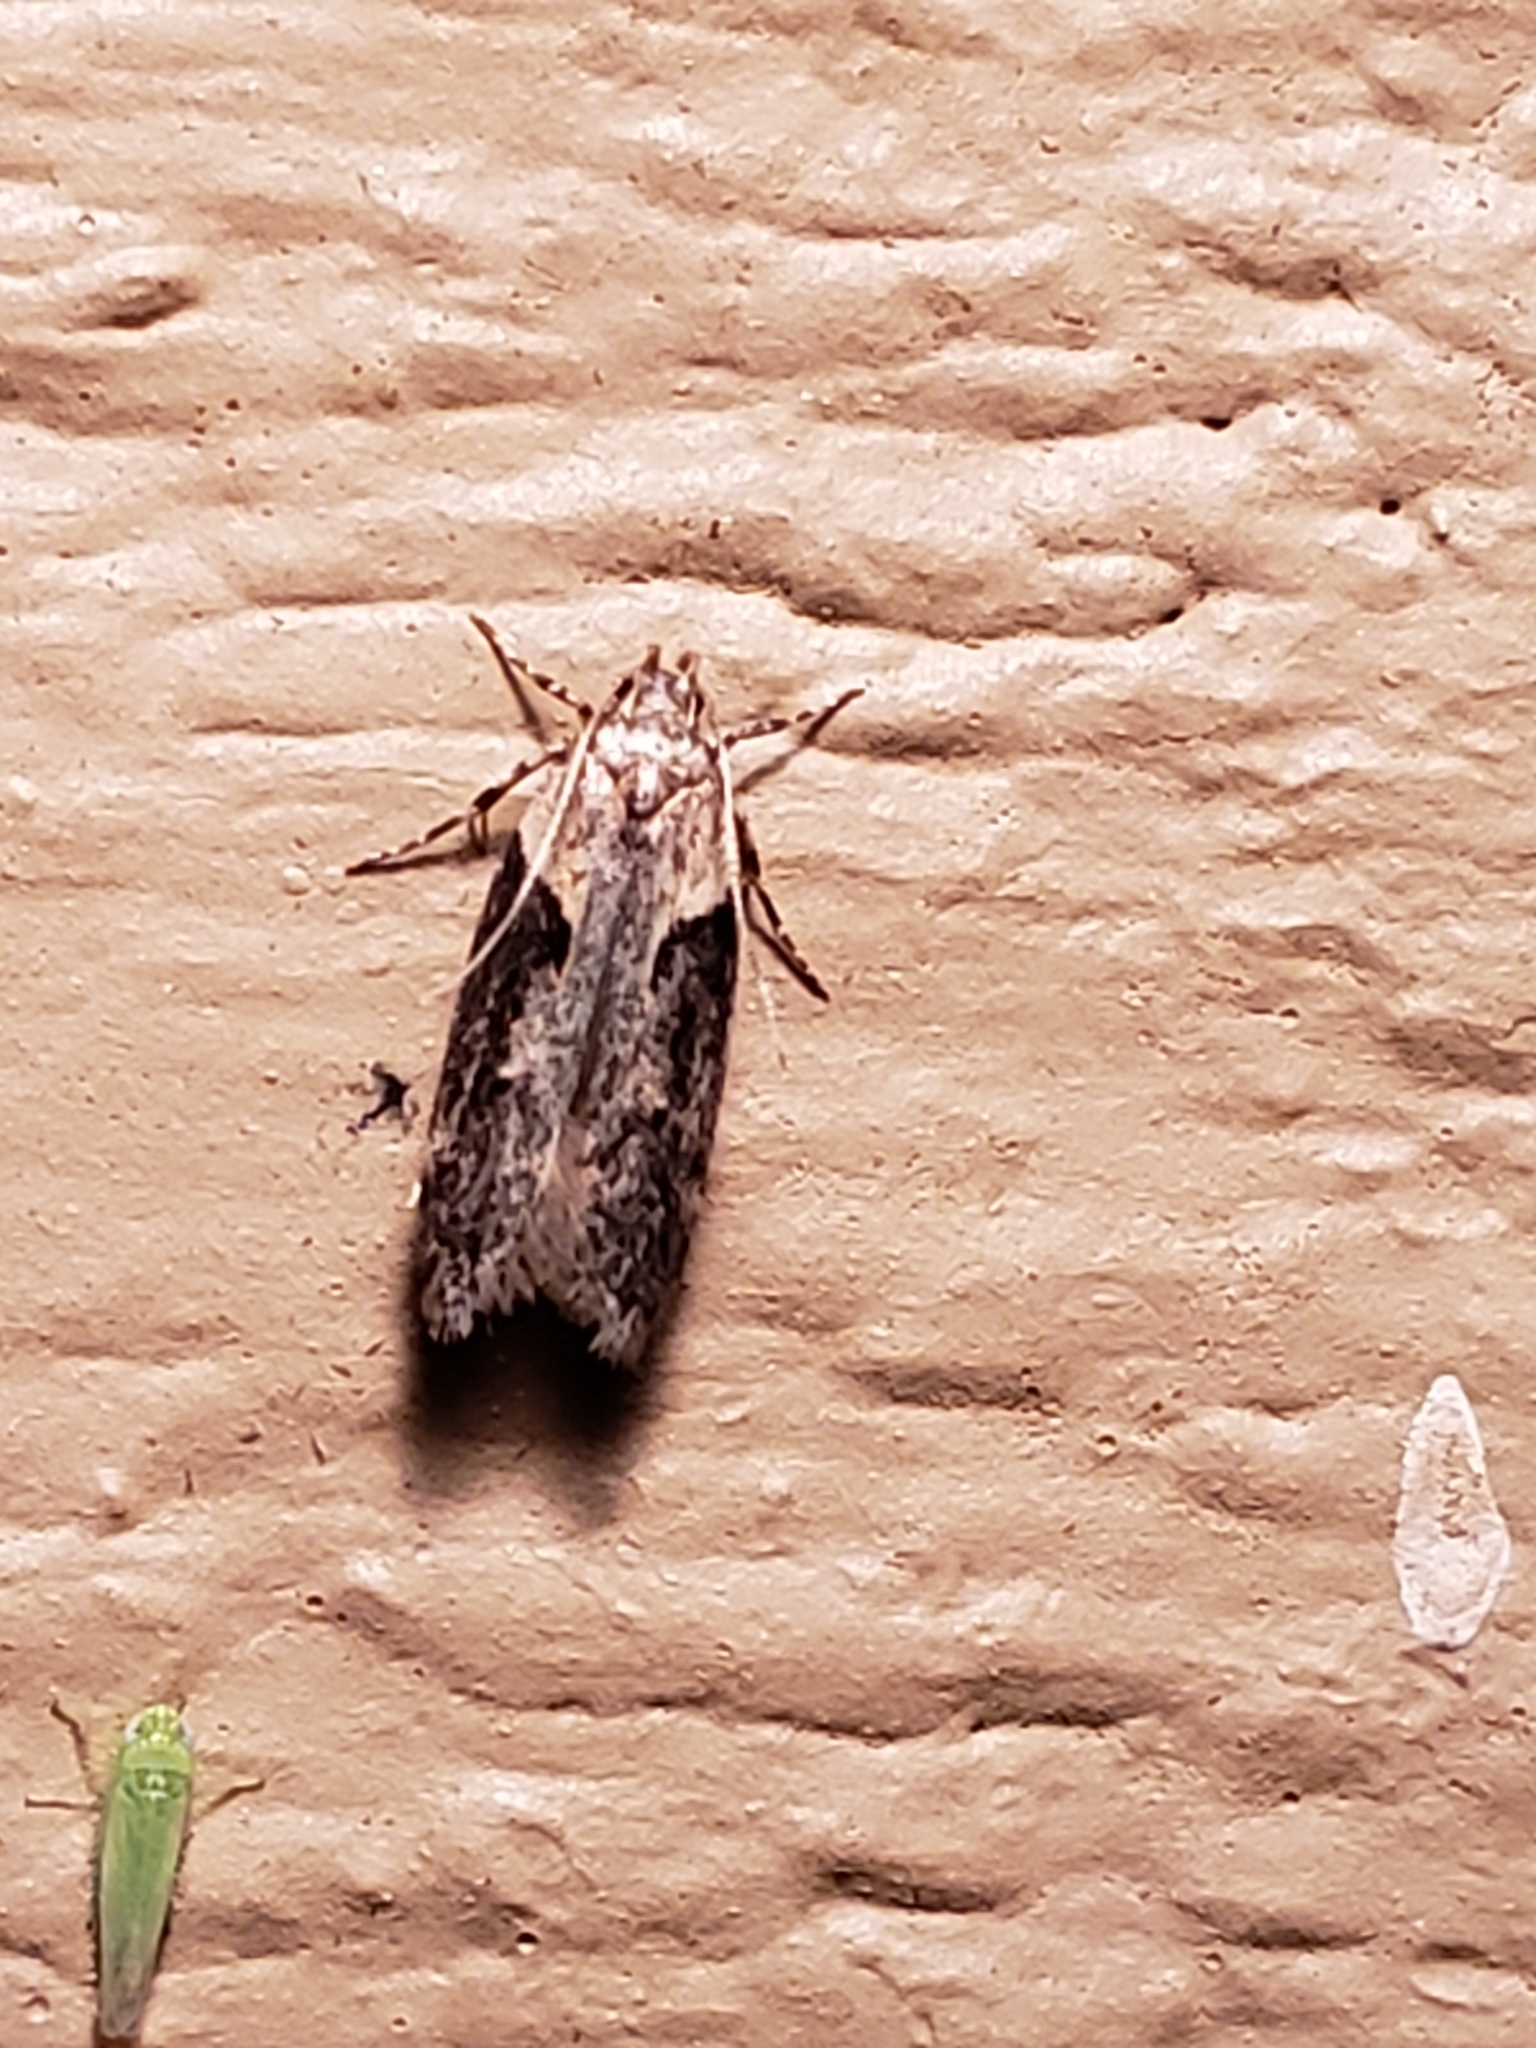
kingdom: Animalia
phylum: Arthropoda
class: Insecta
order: Lepidoptera
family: Gelechiidae
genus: Chionodes
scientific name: Chionodes mediofuscella
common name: Black-smudged chionodes moth
